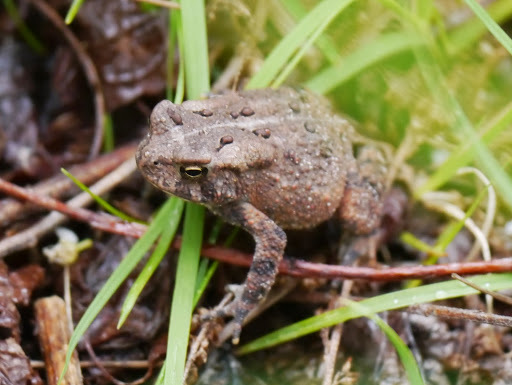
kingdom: Animalia
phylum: Chordata
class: Amphibia
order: Anura
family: Bufonidae
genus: Anaxyrus
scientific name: Anaxyrus americanus
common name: American toad
